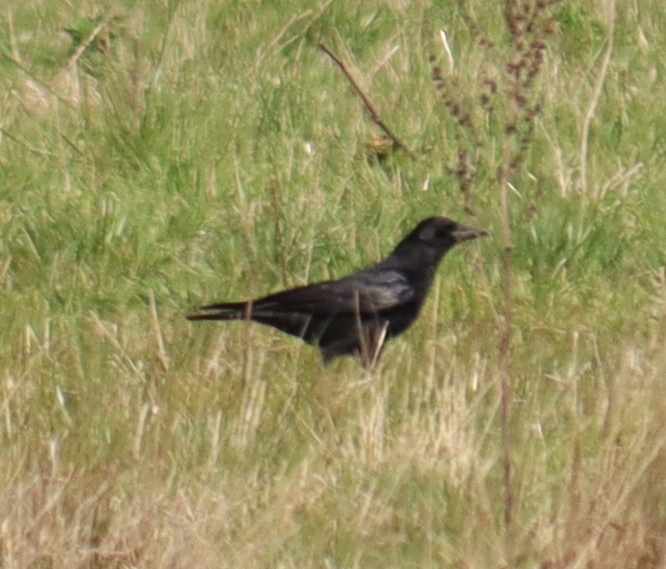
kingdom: Animalia
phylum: Chordata
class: Aves
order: Passeriformes
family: Corvidae
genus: Corvus
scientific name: Corvus corone
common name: Carrion crow
